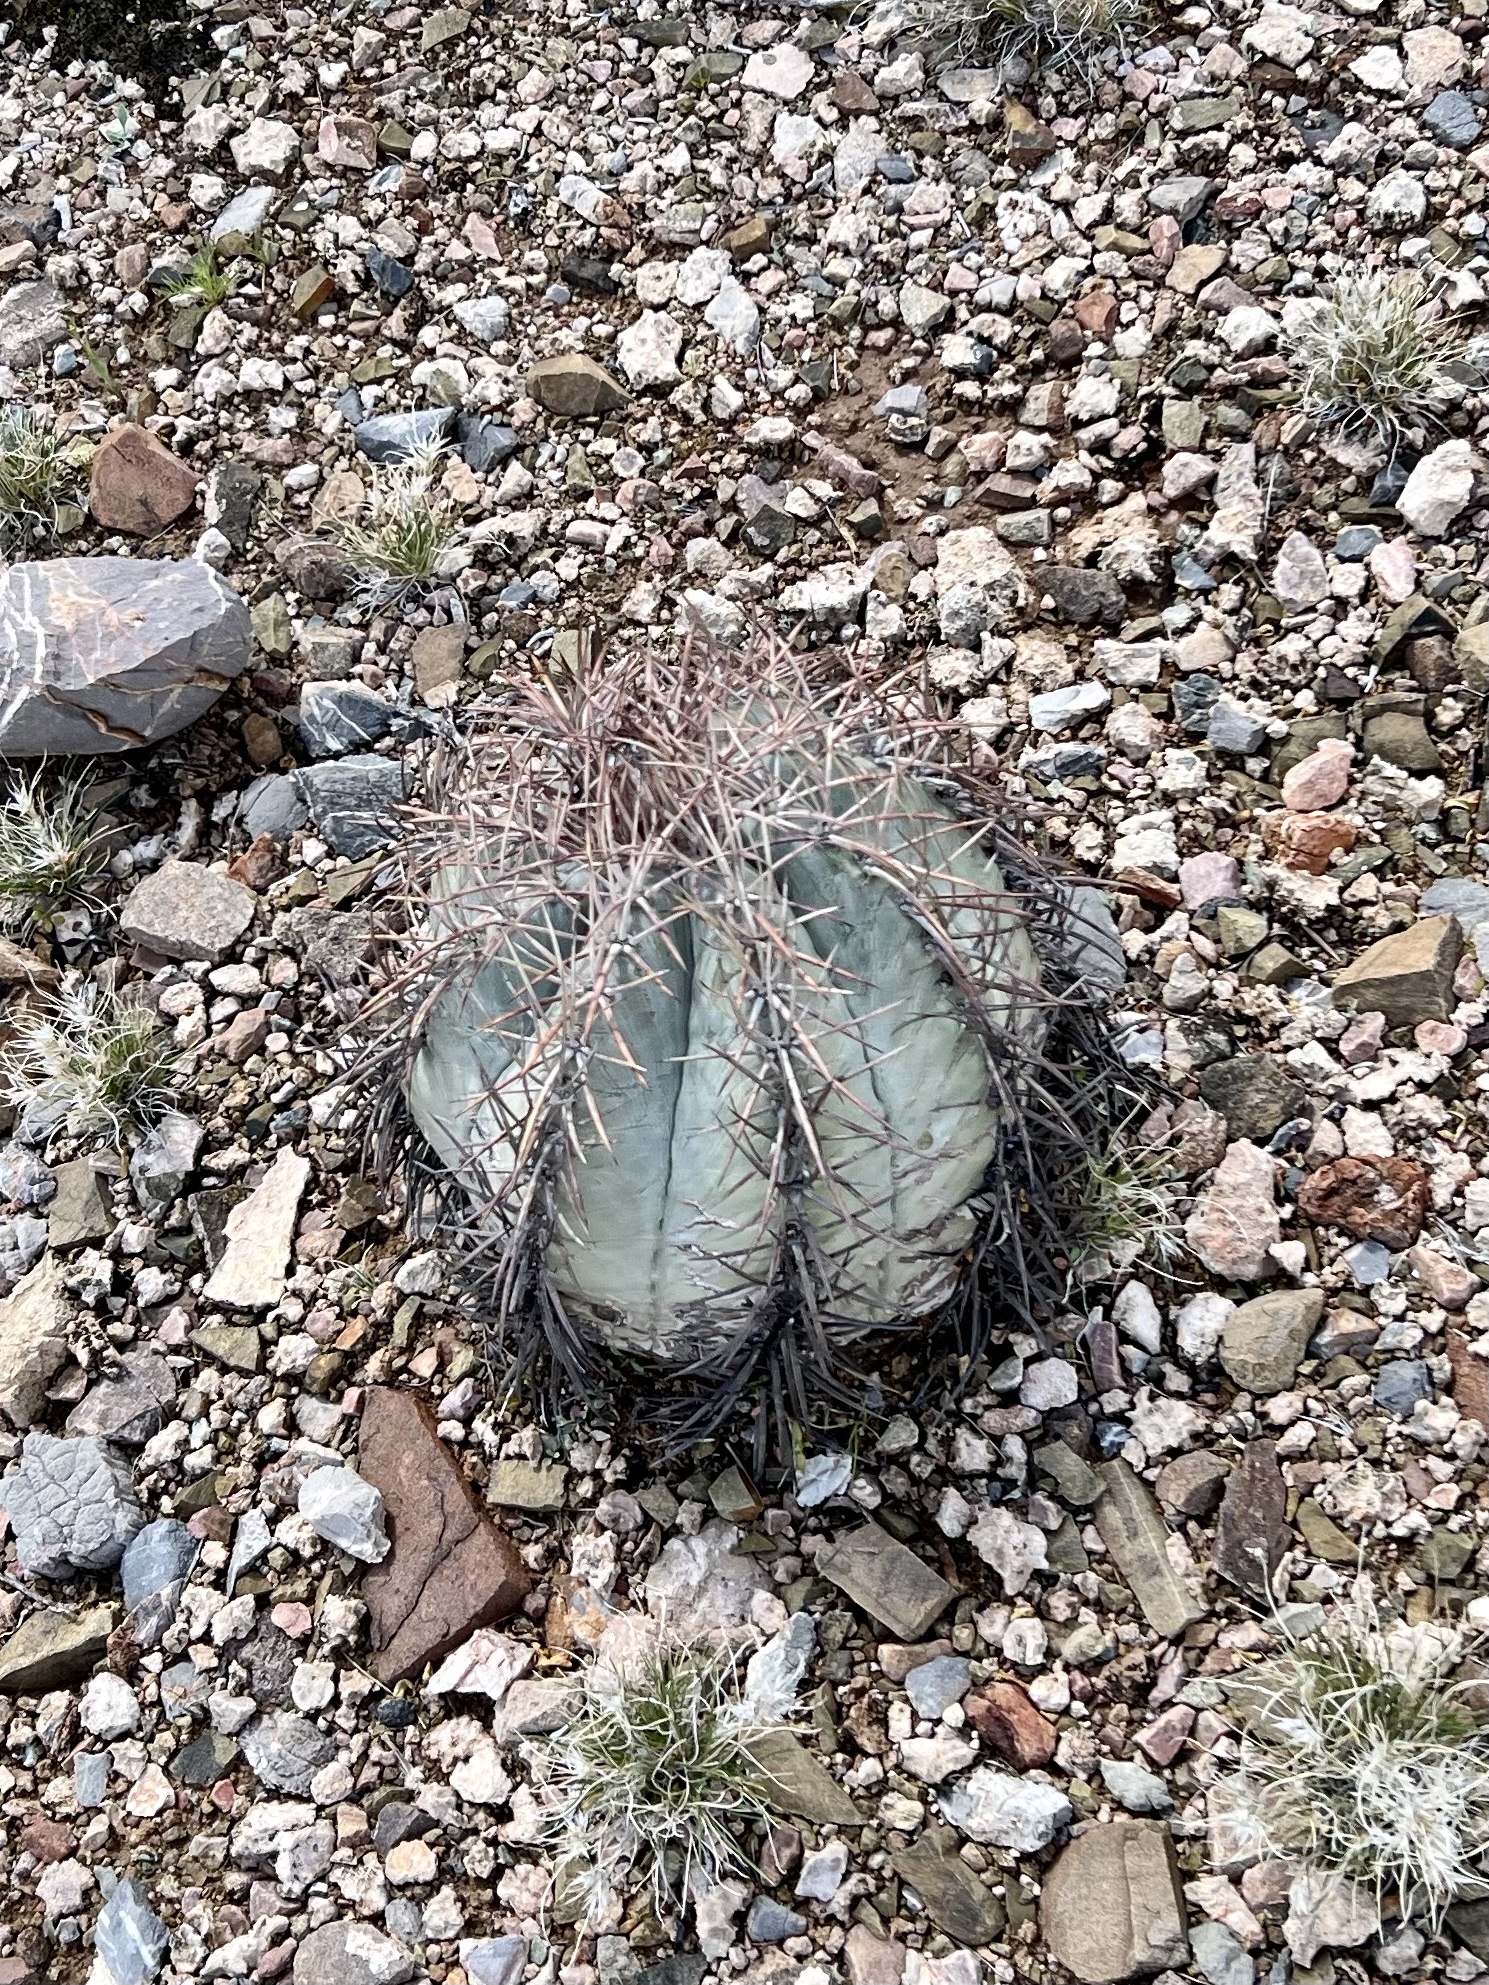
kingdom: Plantae
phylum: Tracheophyta
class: Magnoliopsida
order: Caryophyllales
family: Cactaceae
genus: Echinocactus
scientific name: Echinocactus horizonthalonius
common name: Devilshead
